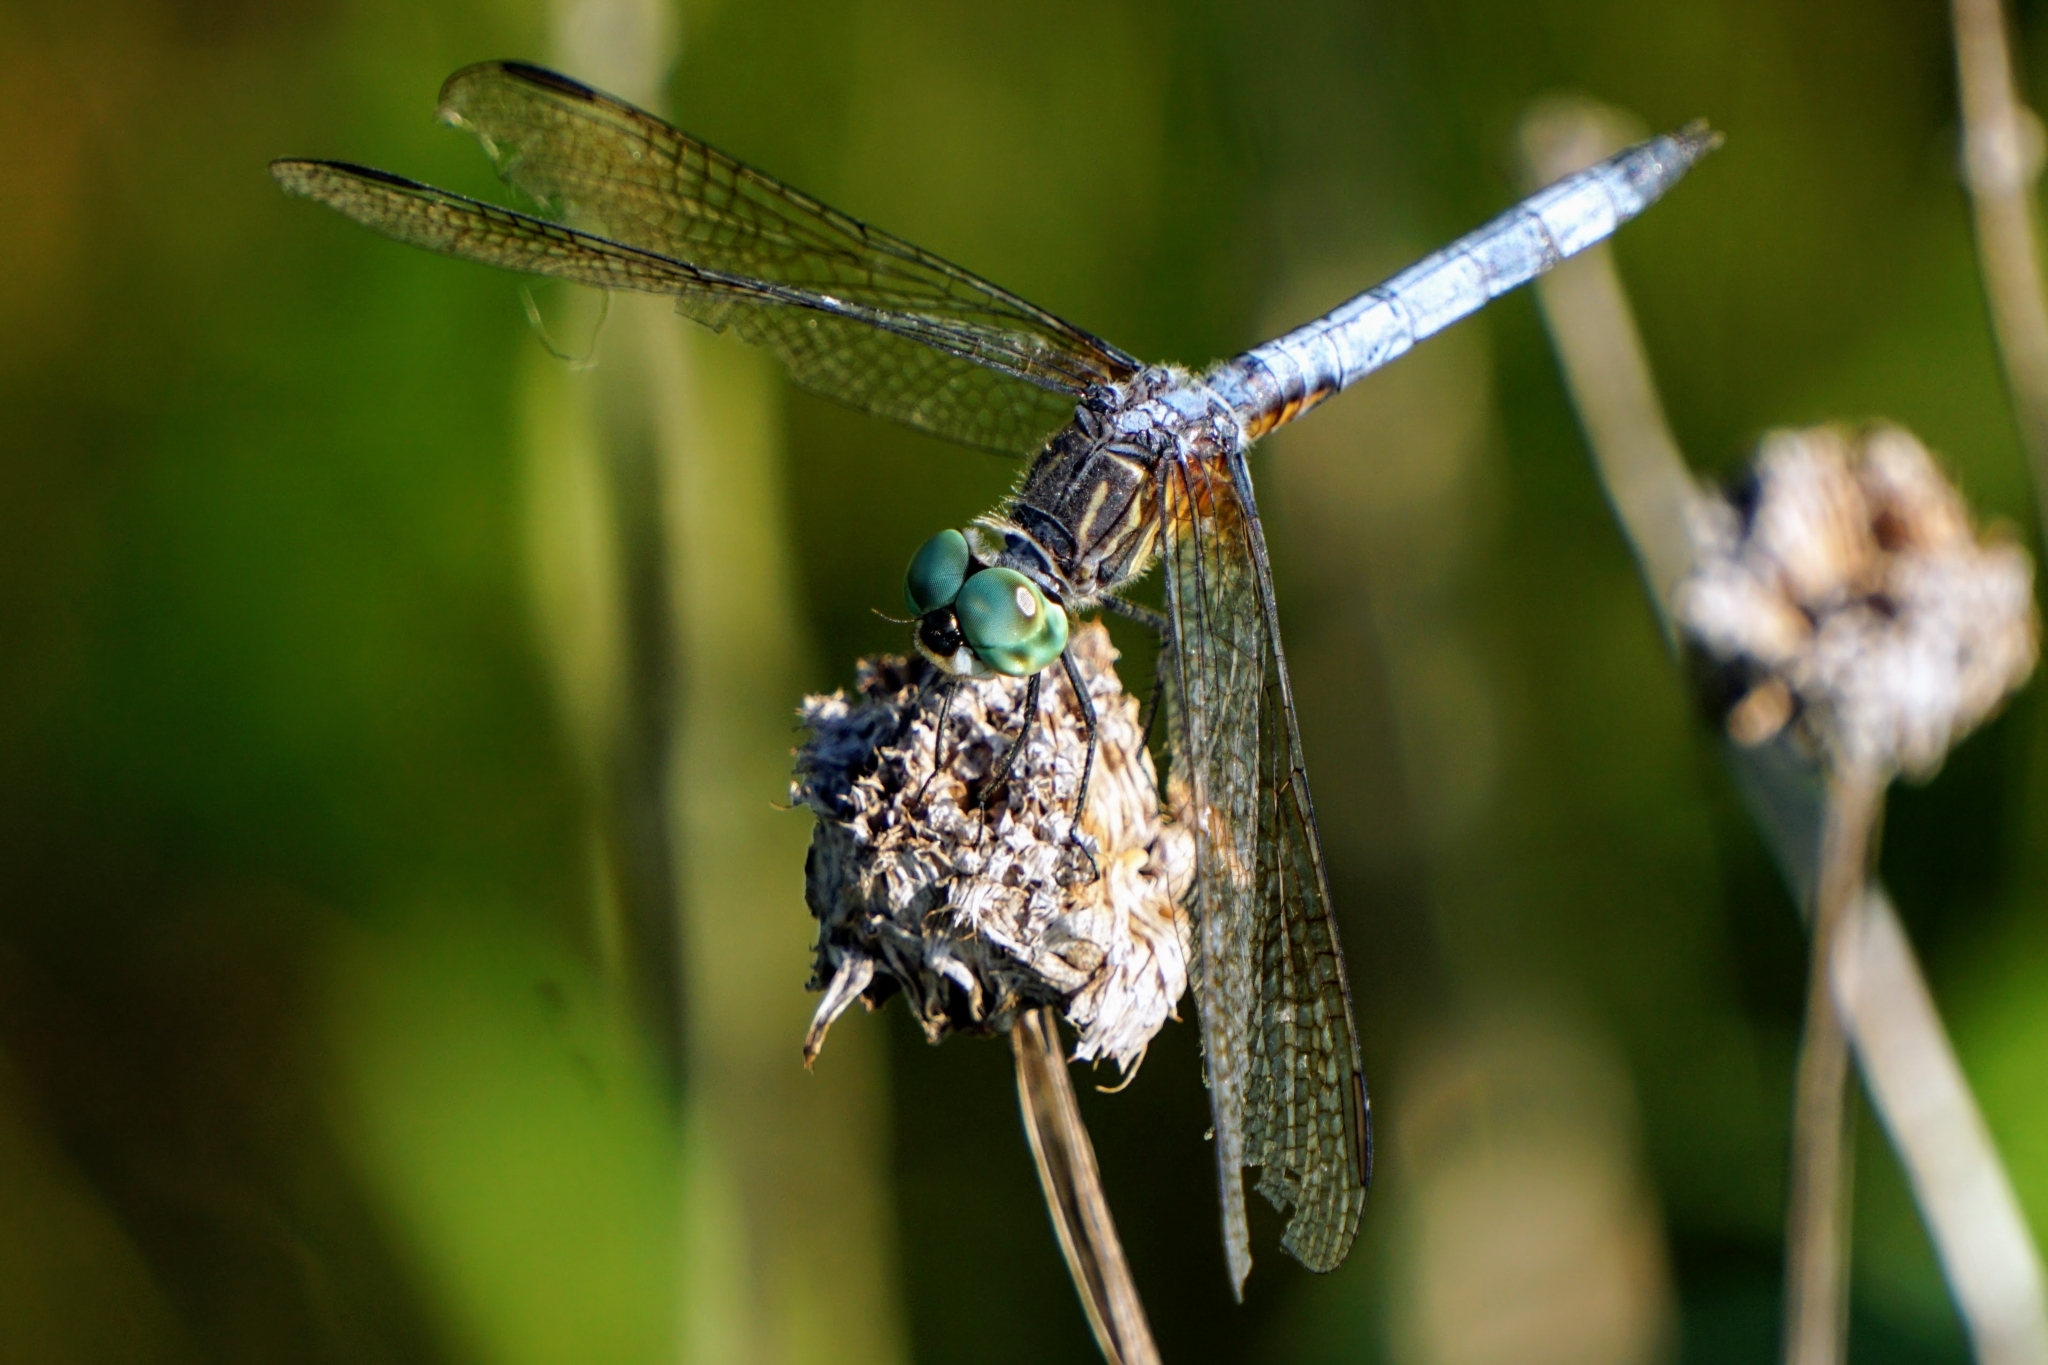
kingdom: Animalia
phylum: Arthropoda
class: Insecta
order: Odonata
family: Libellulidae
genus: Pachydiplax
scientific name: Pachydiplax longipennis
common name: Blue dasher
